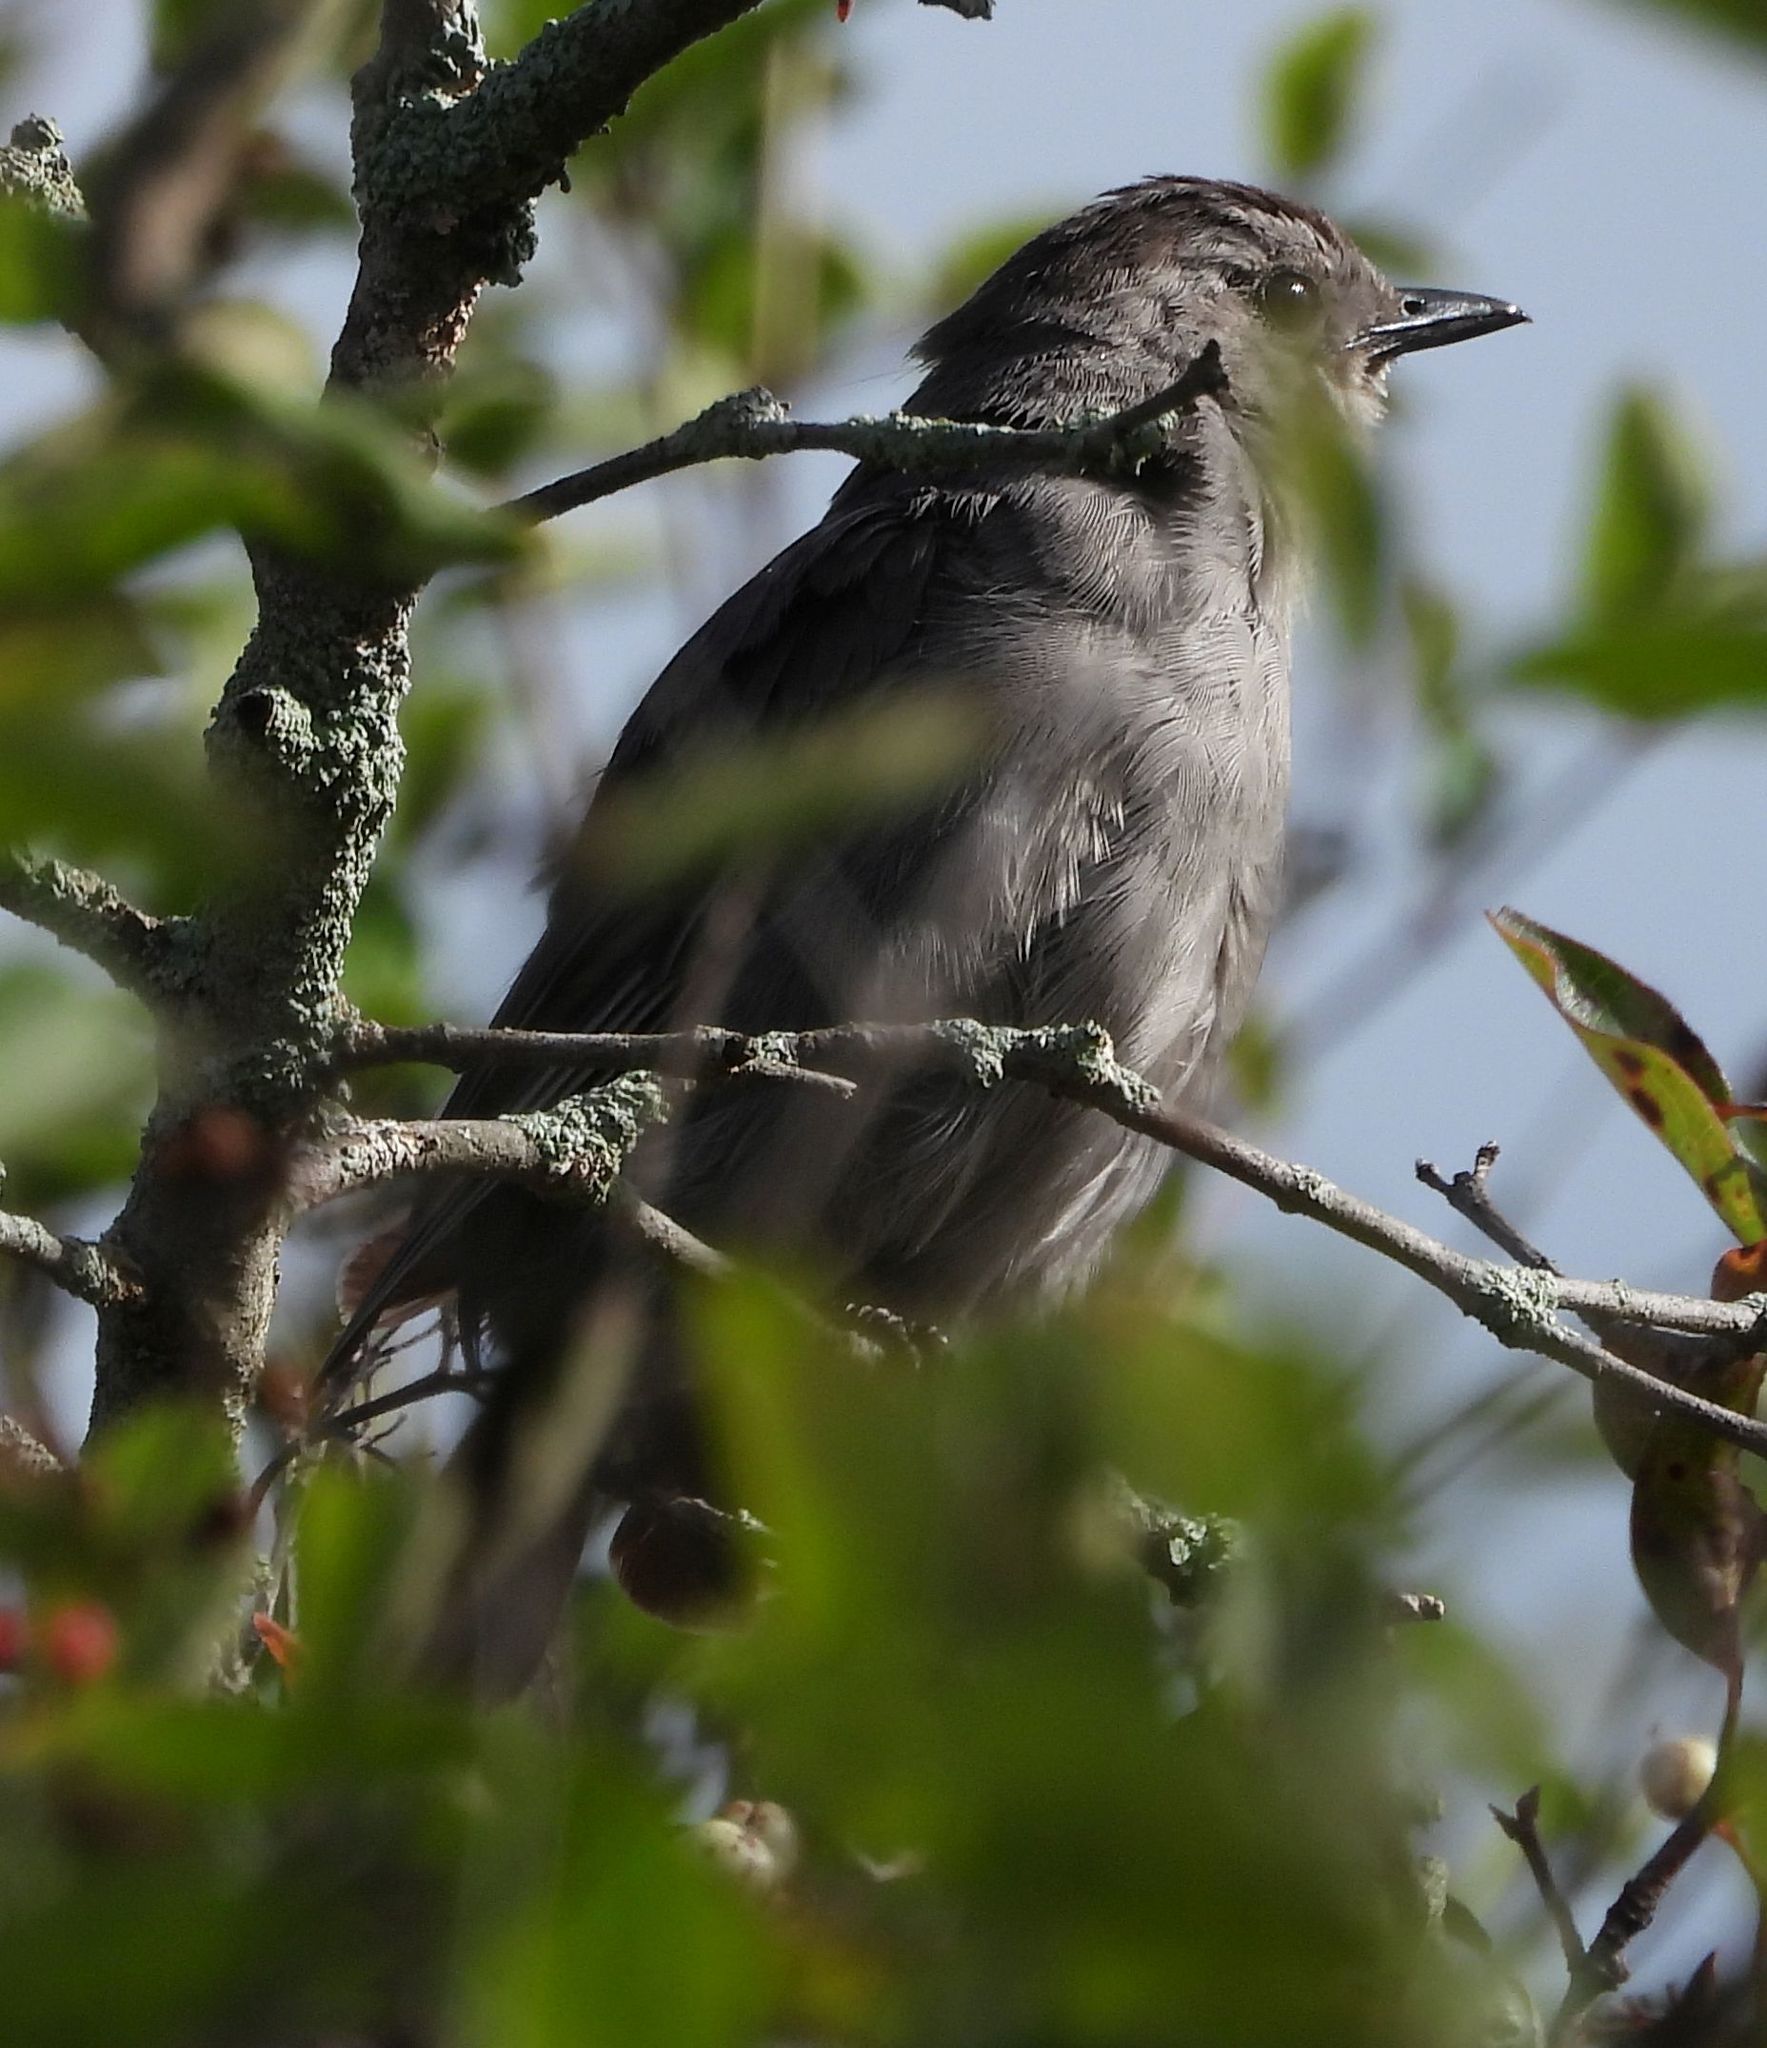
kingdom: Animalia
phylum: Chordata
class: Aves
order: Passeriformes
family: Mimidae
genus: Dumetella
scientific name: Dumetella carolinensis
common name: Gray catbird
